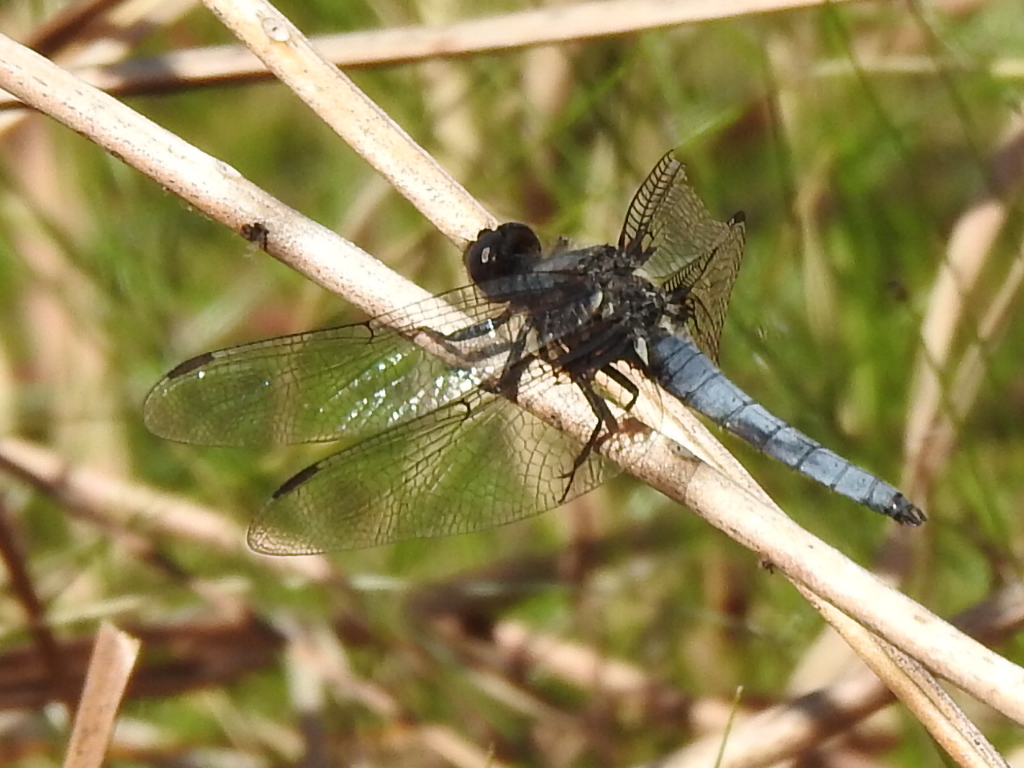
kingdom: Animalia
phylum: Arthropoda
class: Insecta
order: Odonata
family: Libellulidae
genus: Ladona
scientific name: Ladona deplanata
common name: Blue corporal
